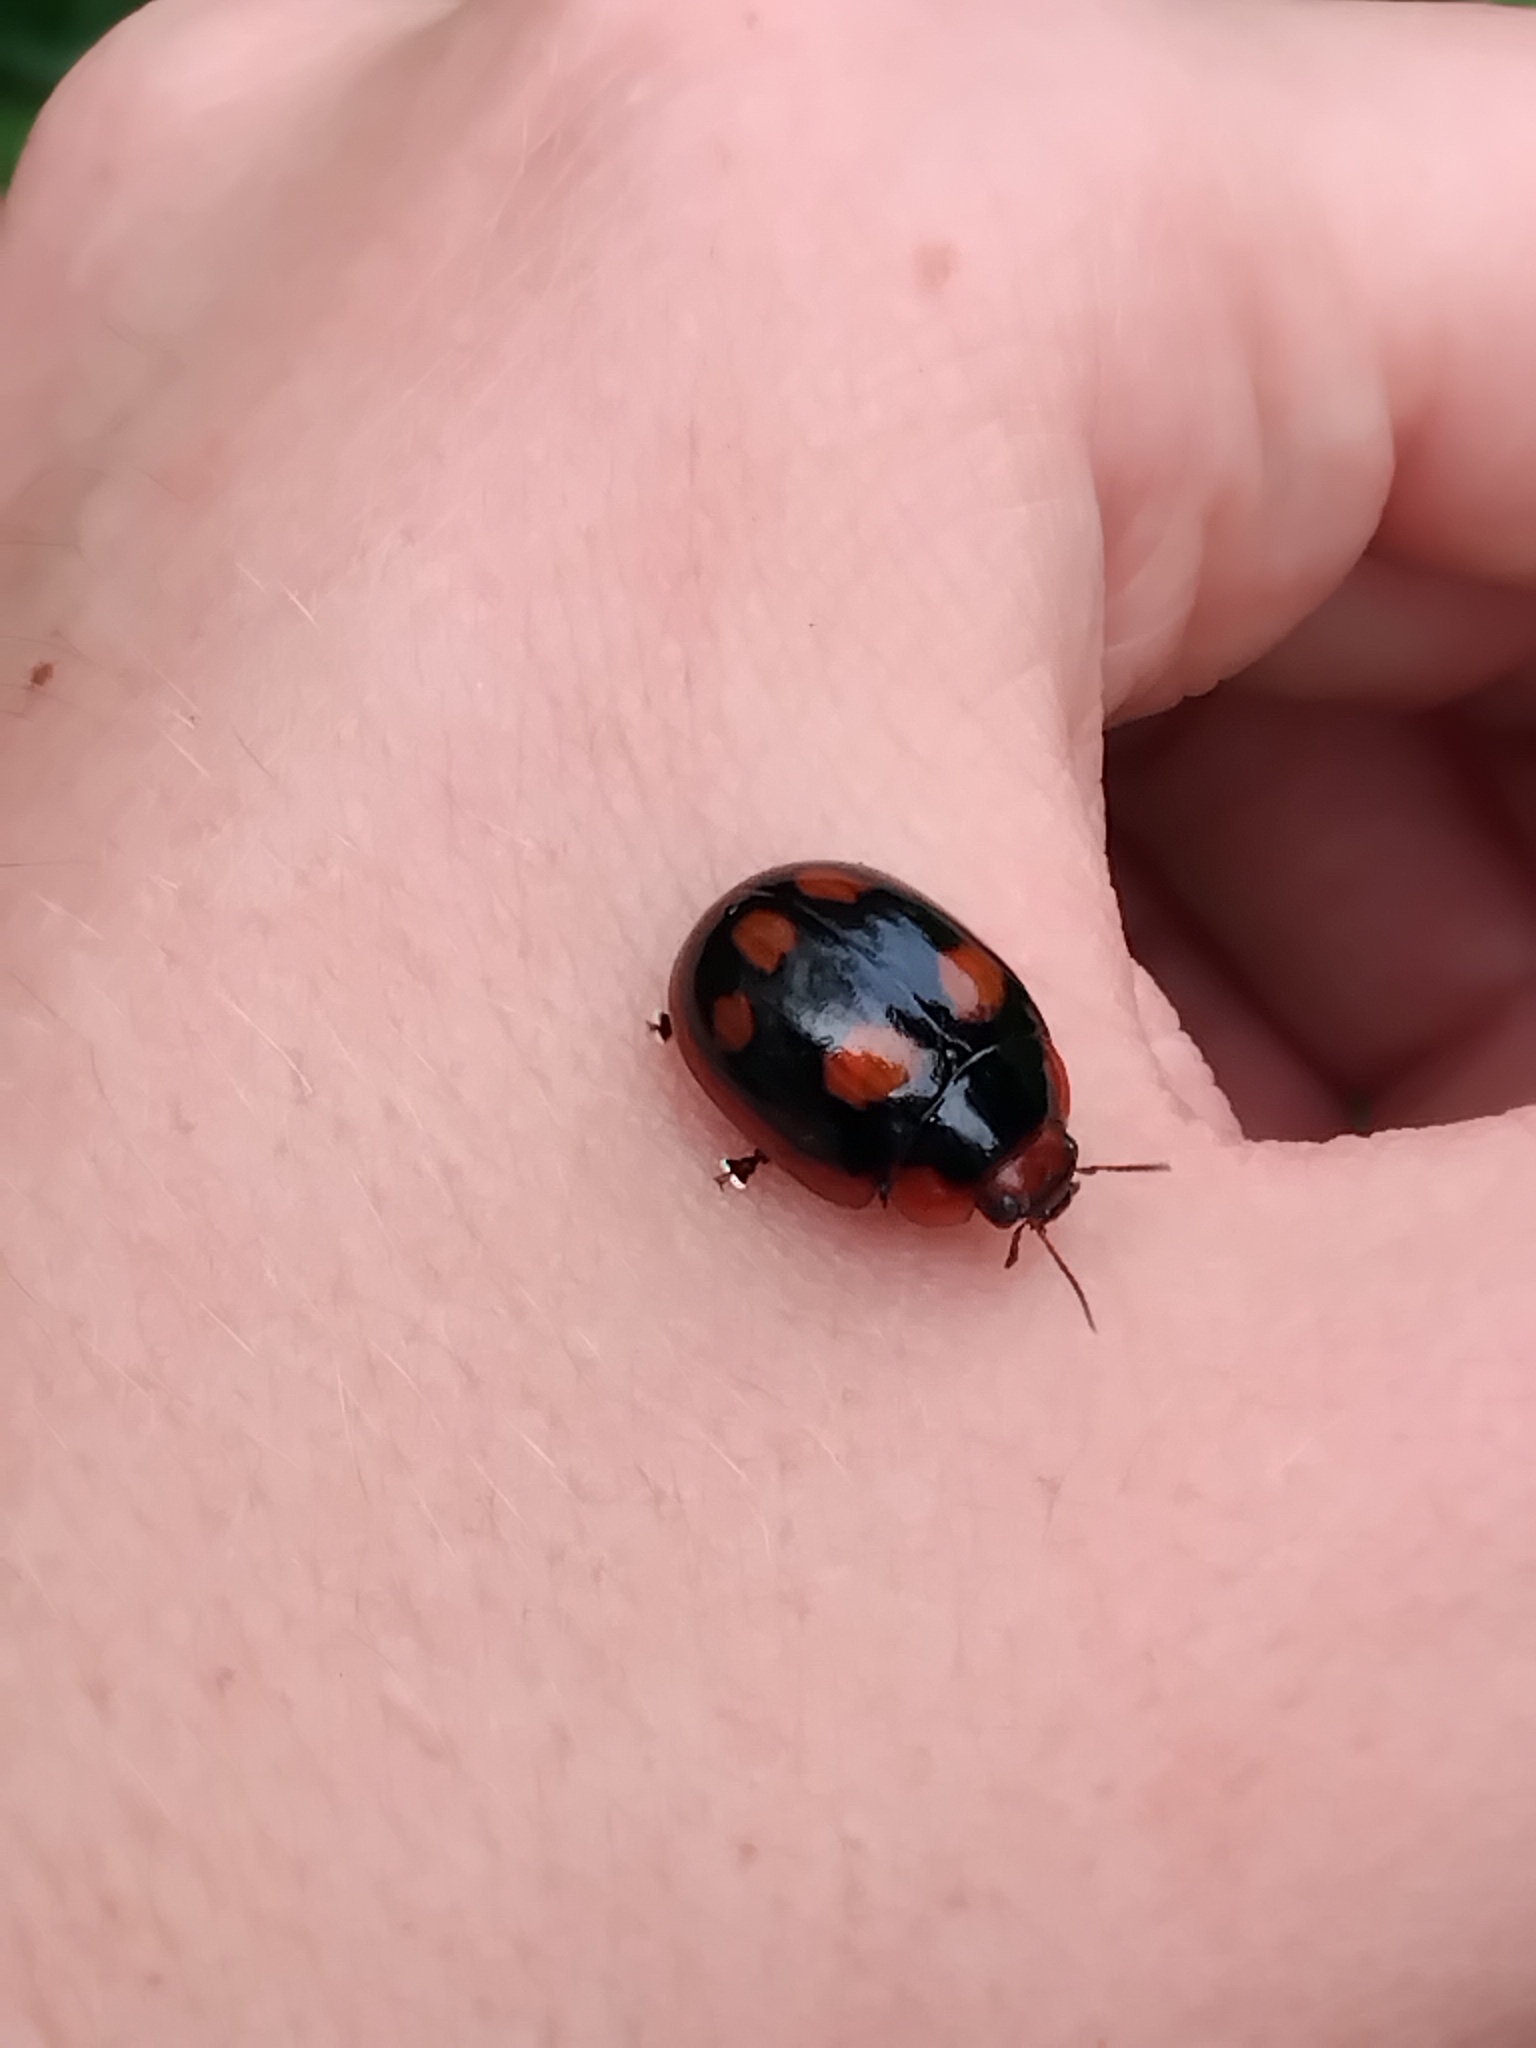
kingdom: Animalia
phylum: Arthropoda
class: Insecta
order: Coleoptera
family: Chrysomelidae
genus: Paropsisterna
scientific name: Paropsisterna beata
